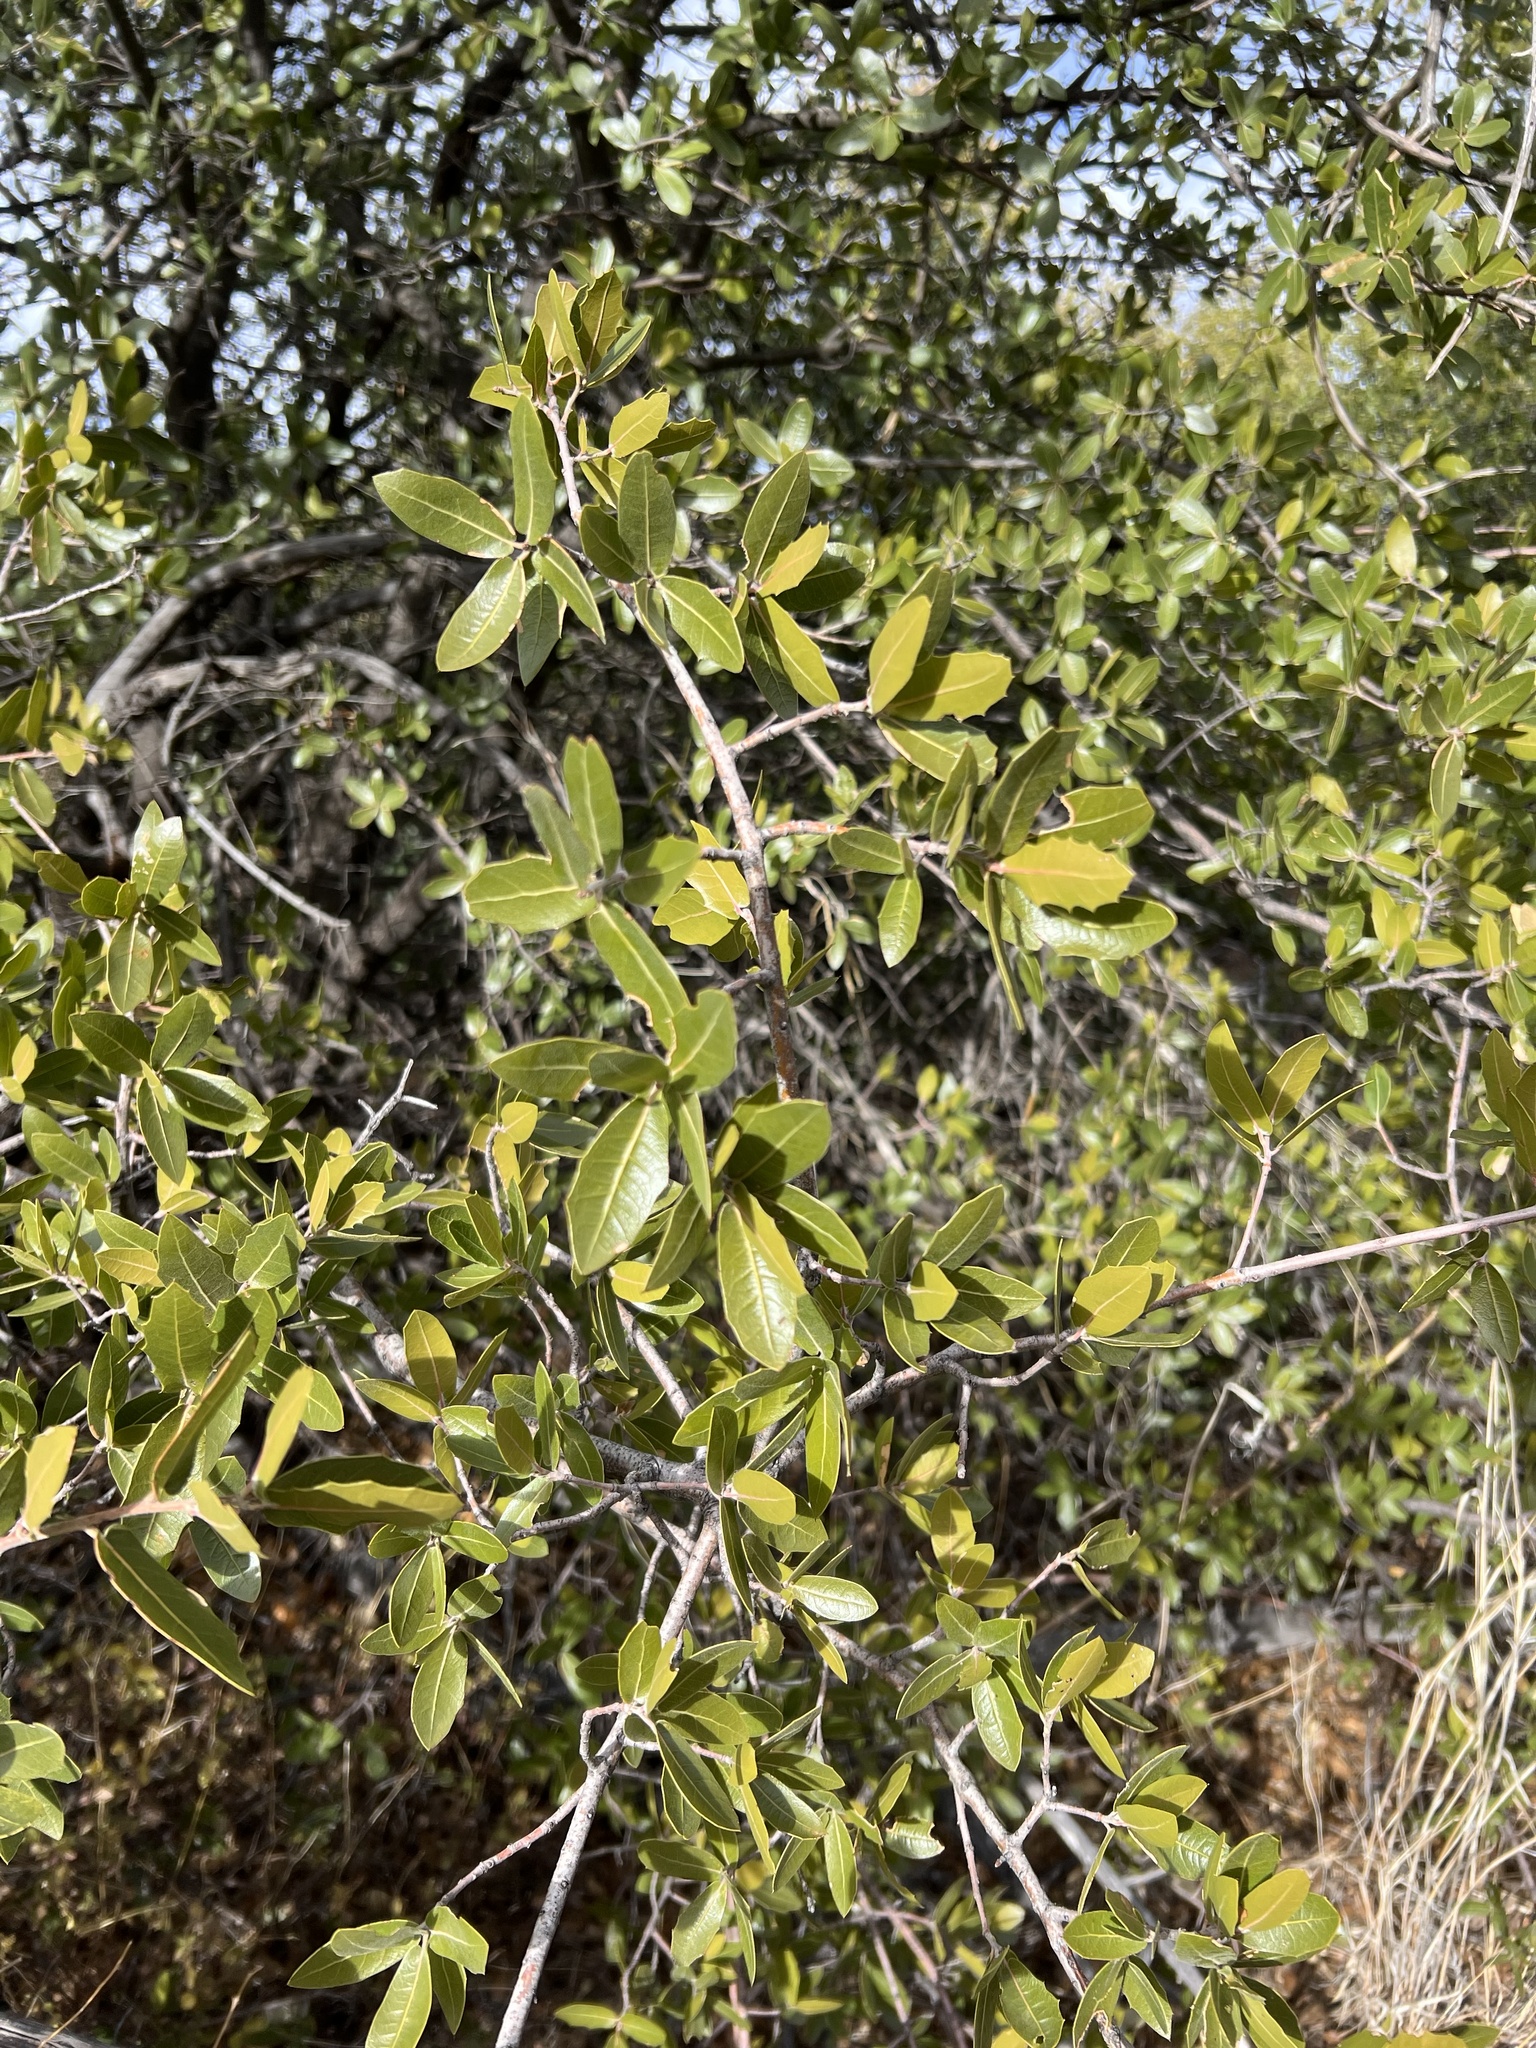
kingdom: Plantae
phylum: Tracheophyta
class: Magnoliopsida
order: Fagales
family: Fagaceae
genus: Quercus
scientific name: Quercus emoryi
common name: Emory oak
